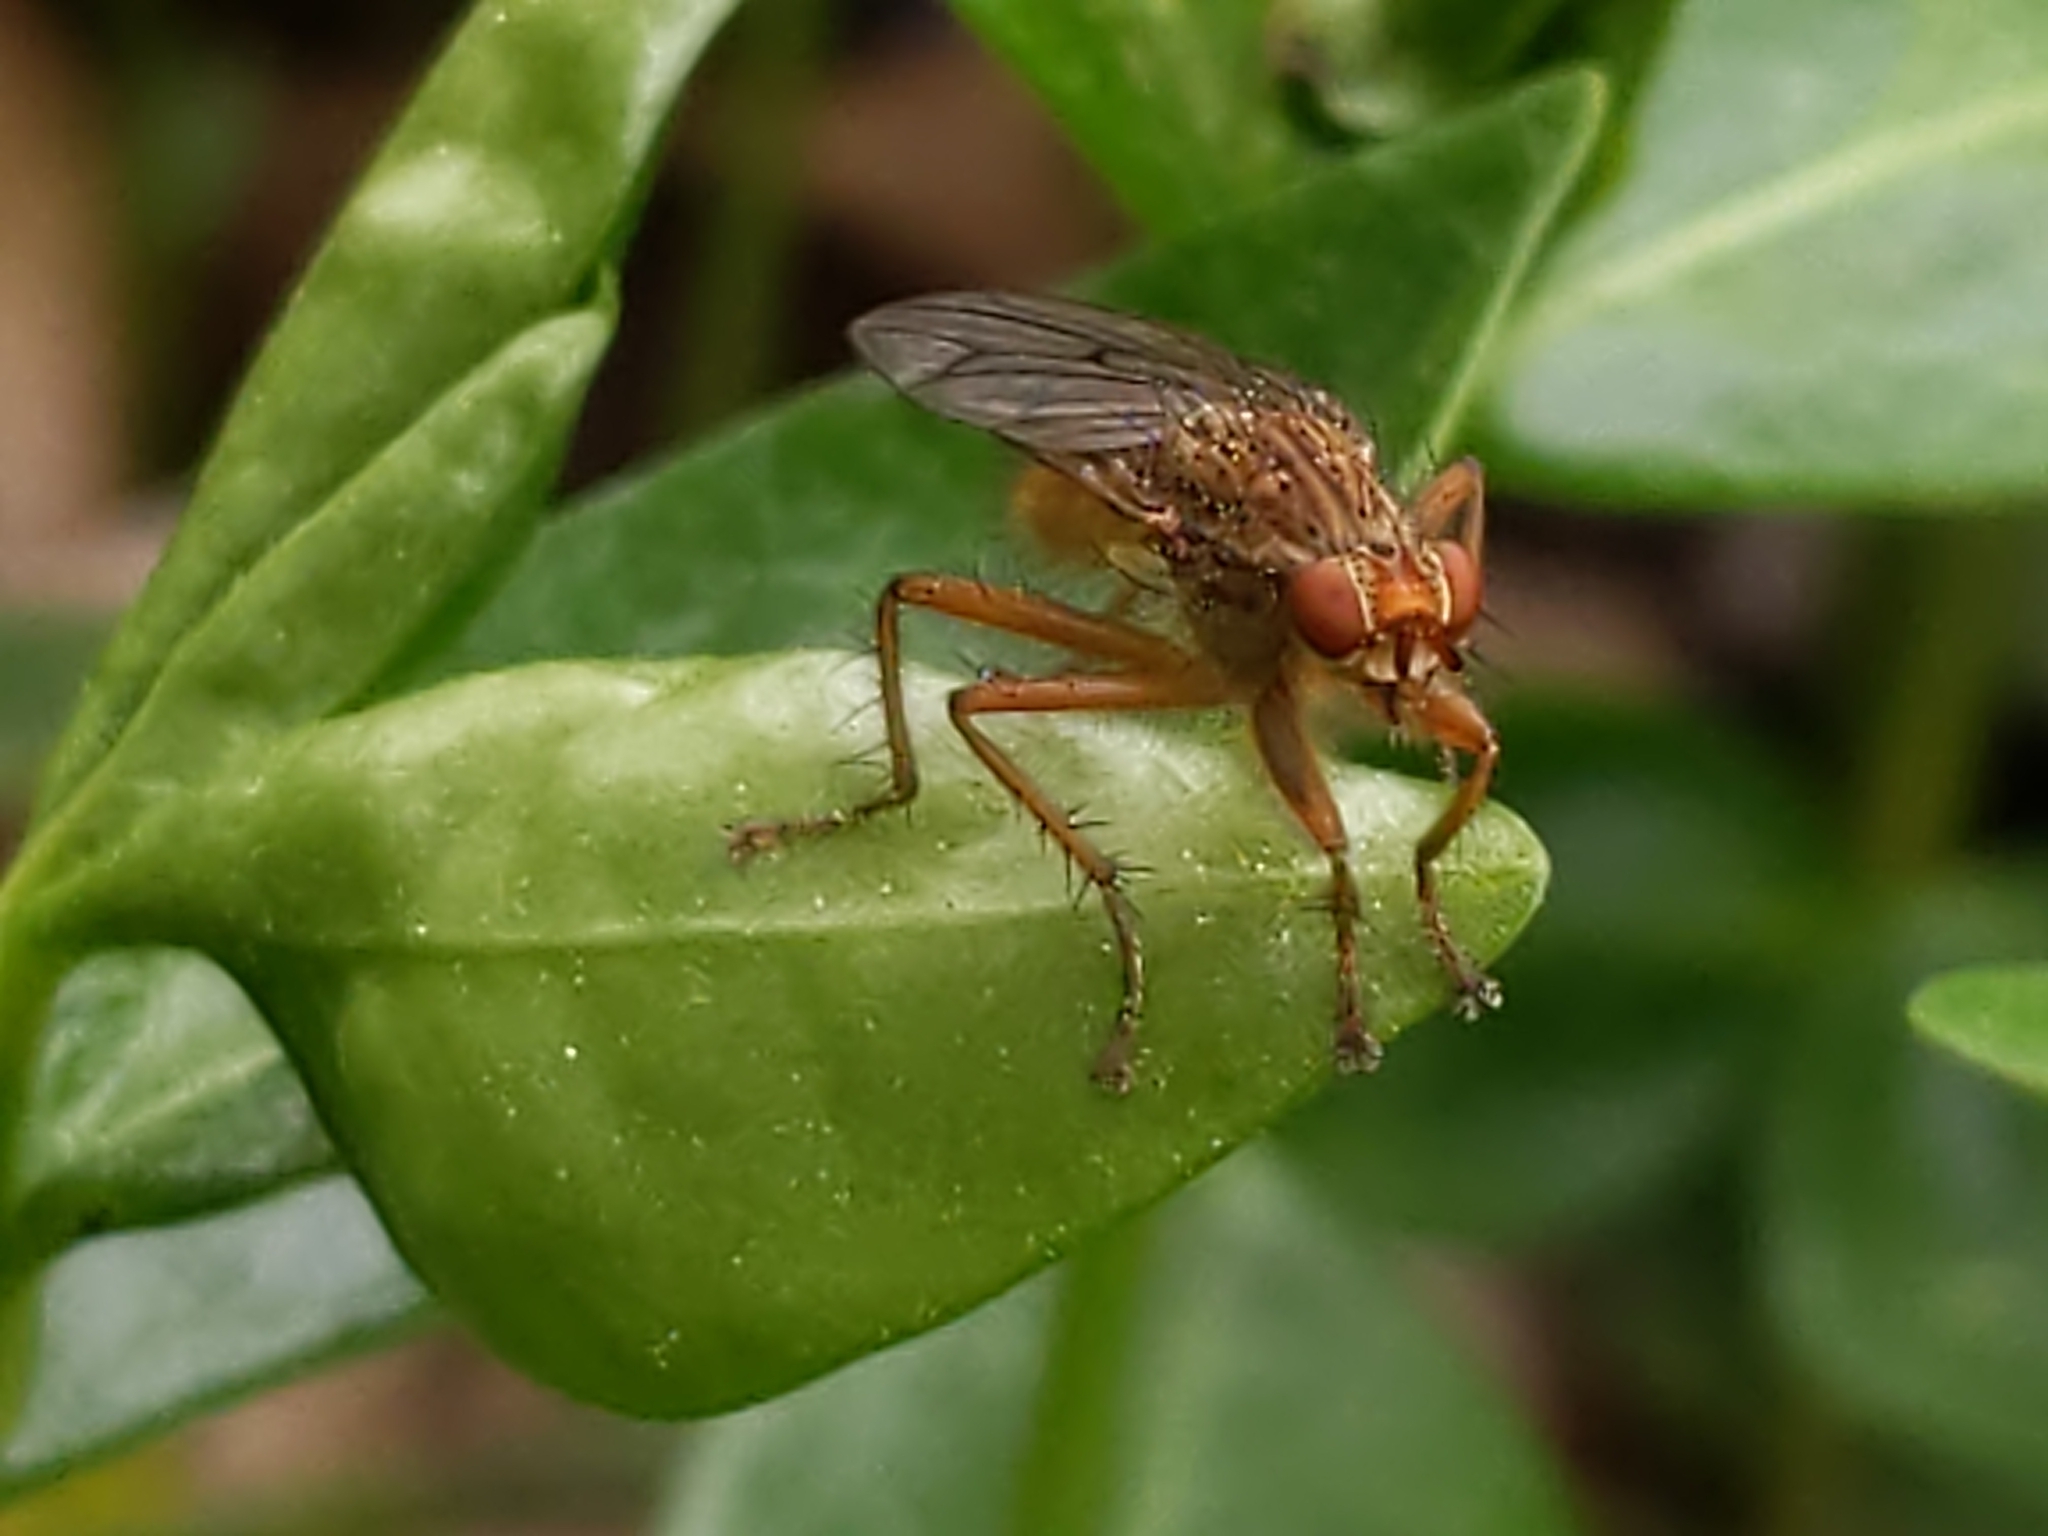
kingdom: Animalia
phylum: Arthropoda
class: Insecta
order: Diptera
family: Scathophagidae
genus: Scathophaga
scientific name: Scathophaga
